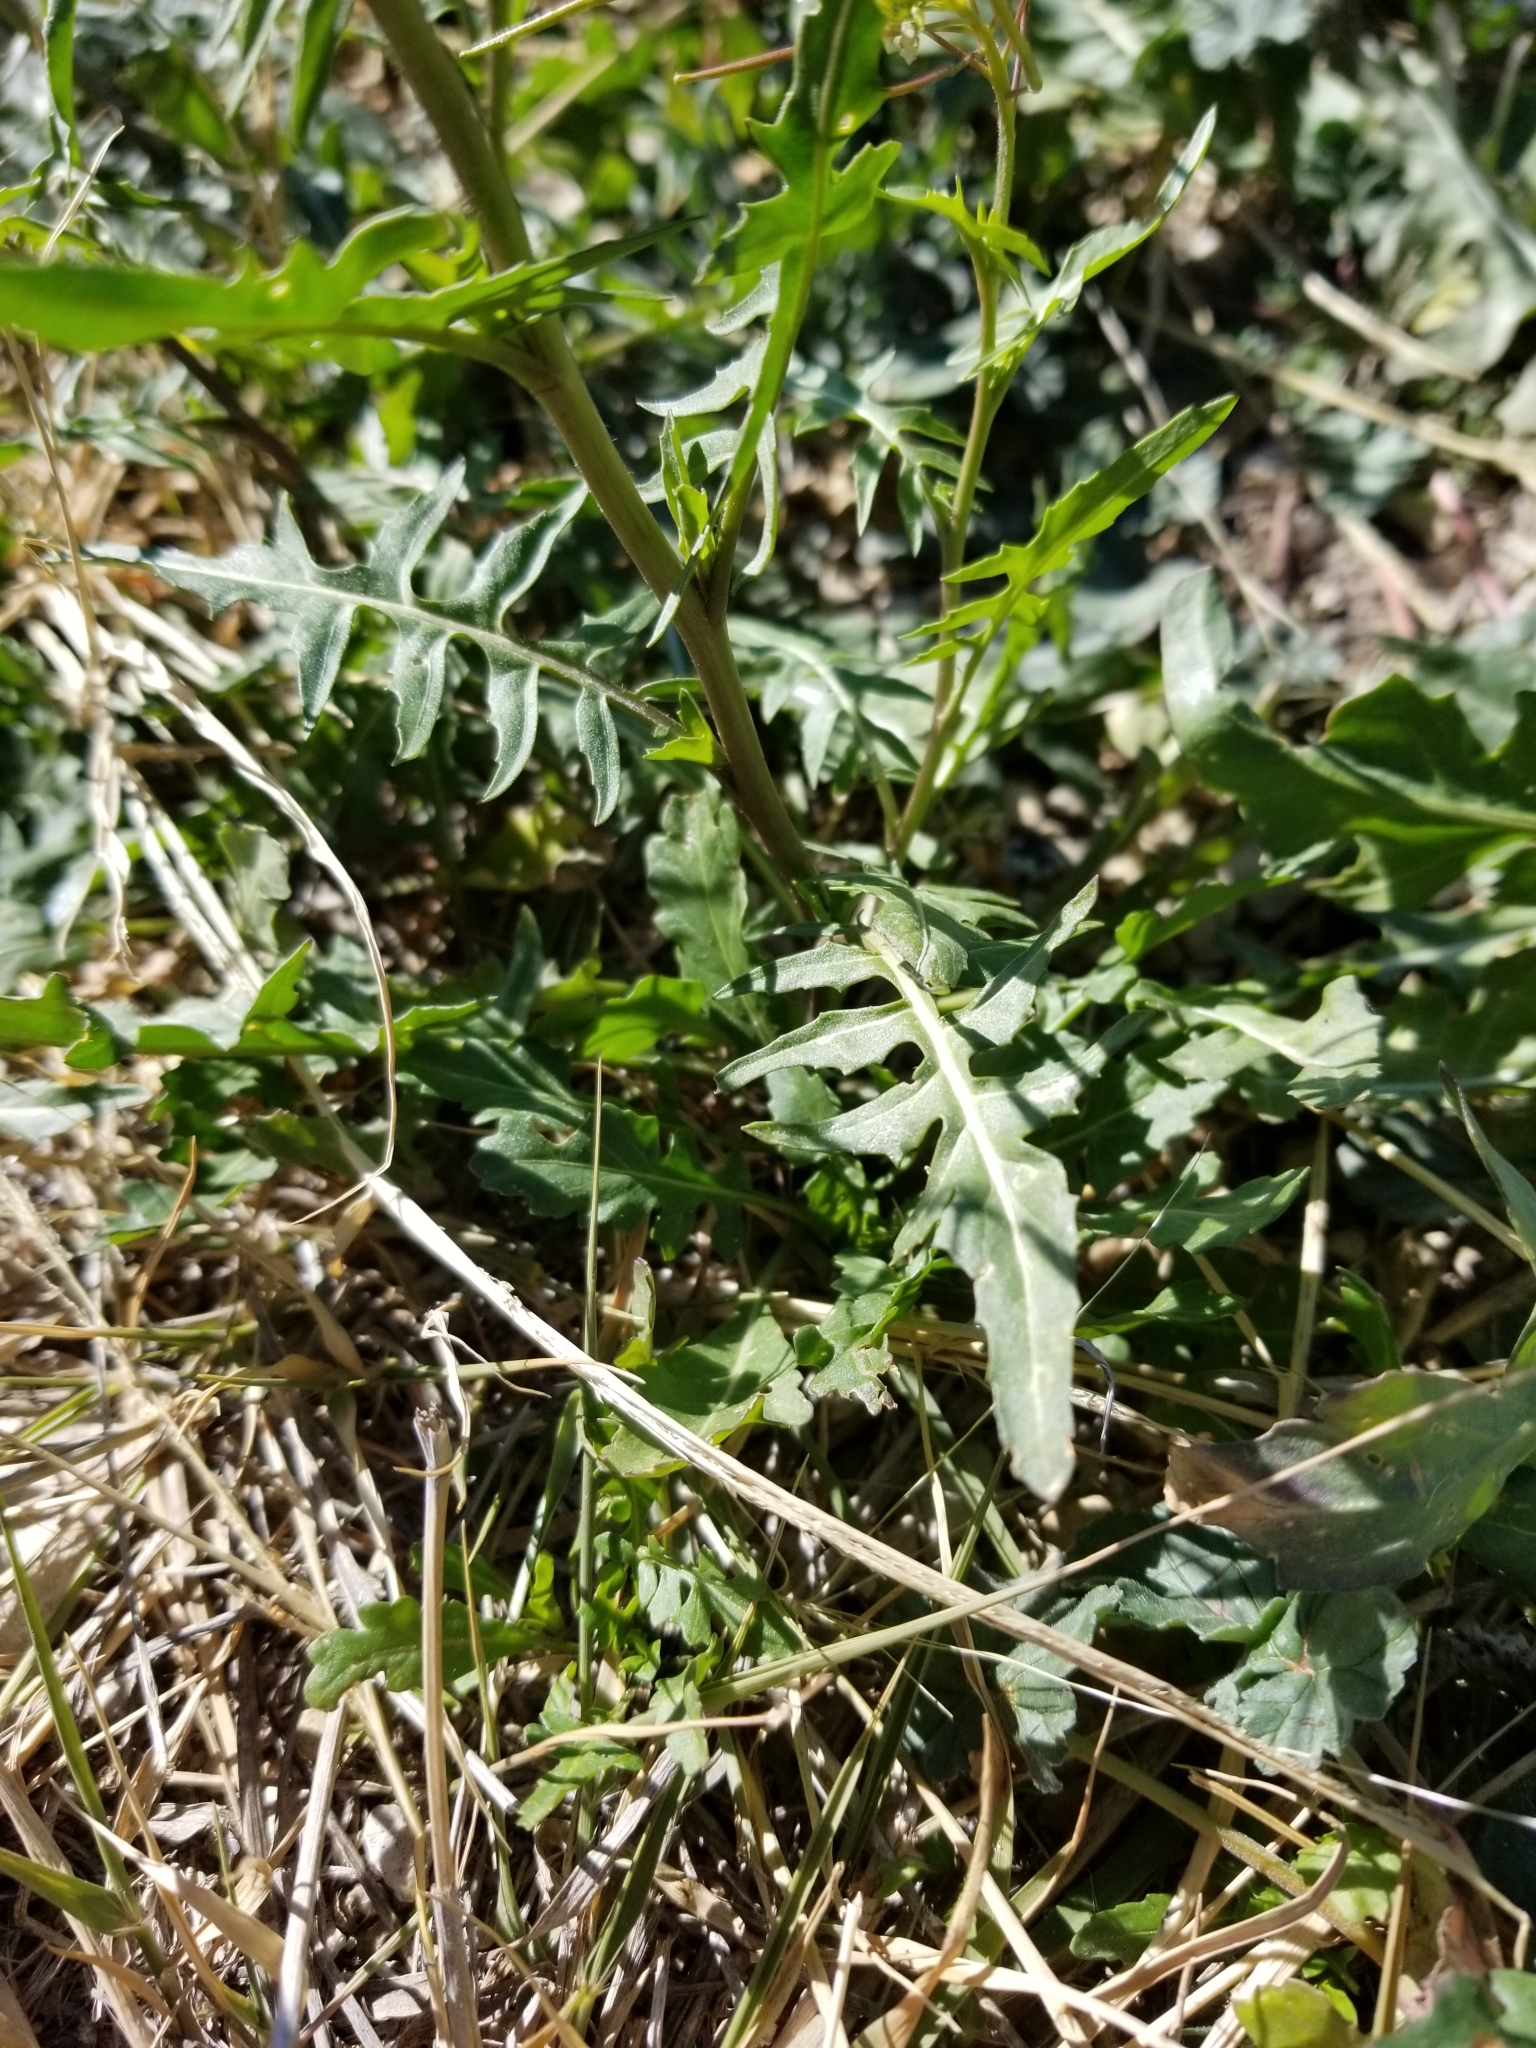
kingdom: Plantae
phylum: Tracheophyta
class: Magnoliopsida
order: Brassicales
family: Brassicaceae
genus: Sisymbrium
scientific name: Sisymbrium irio
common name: London rocket
